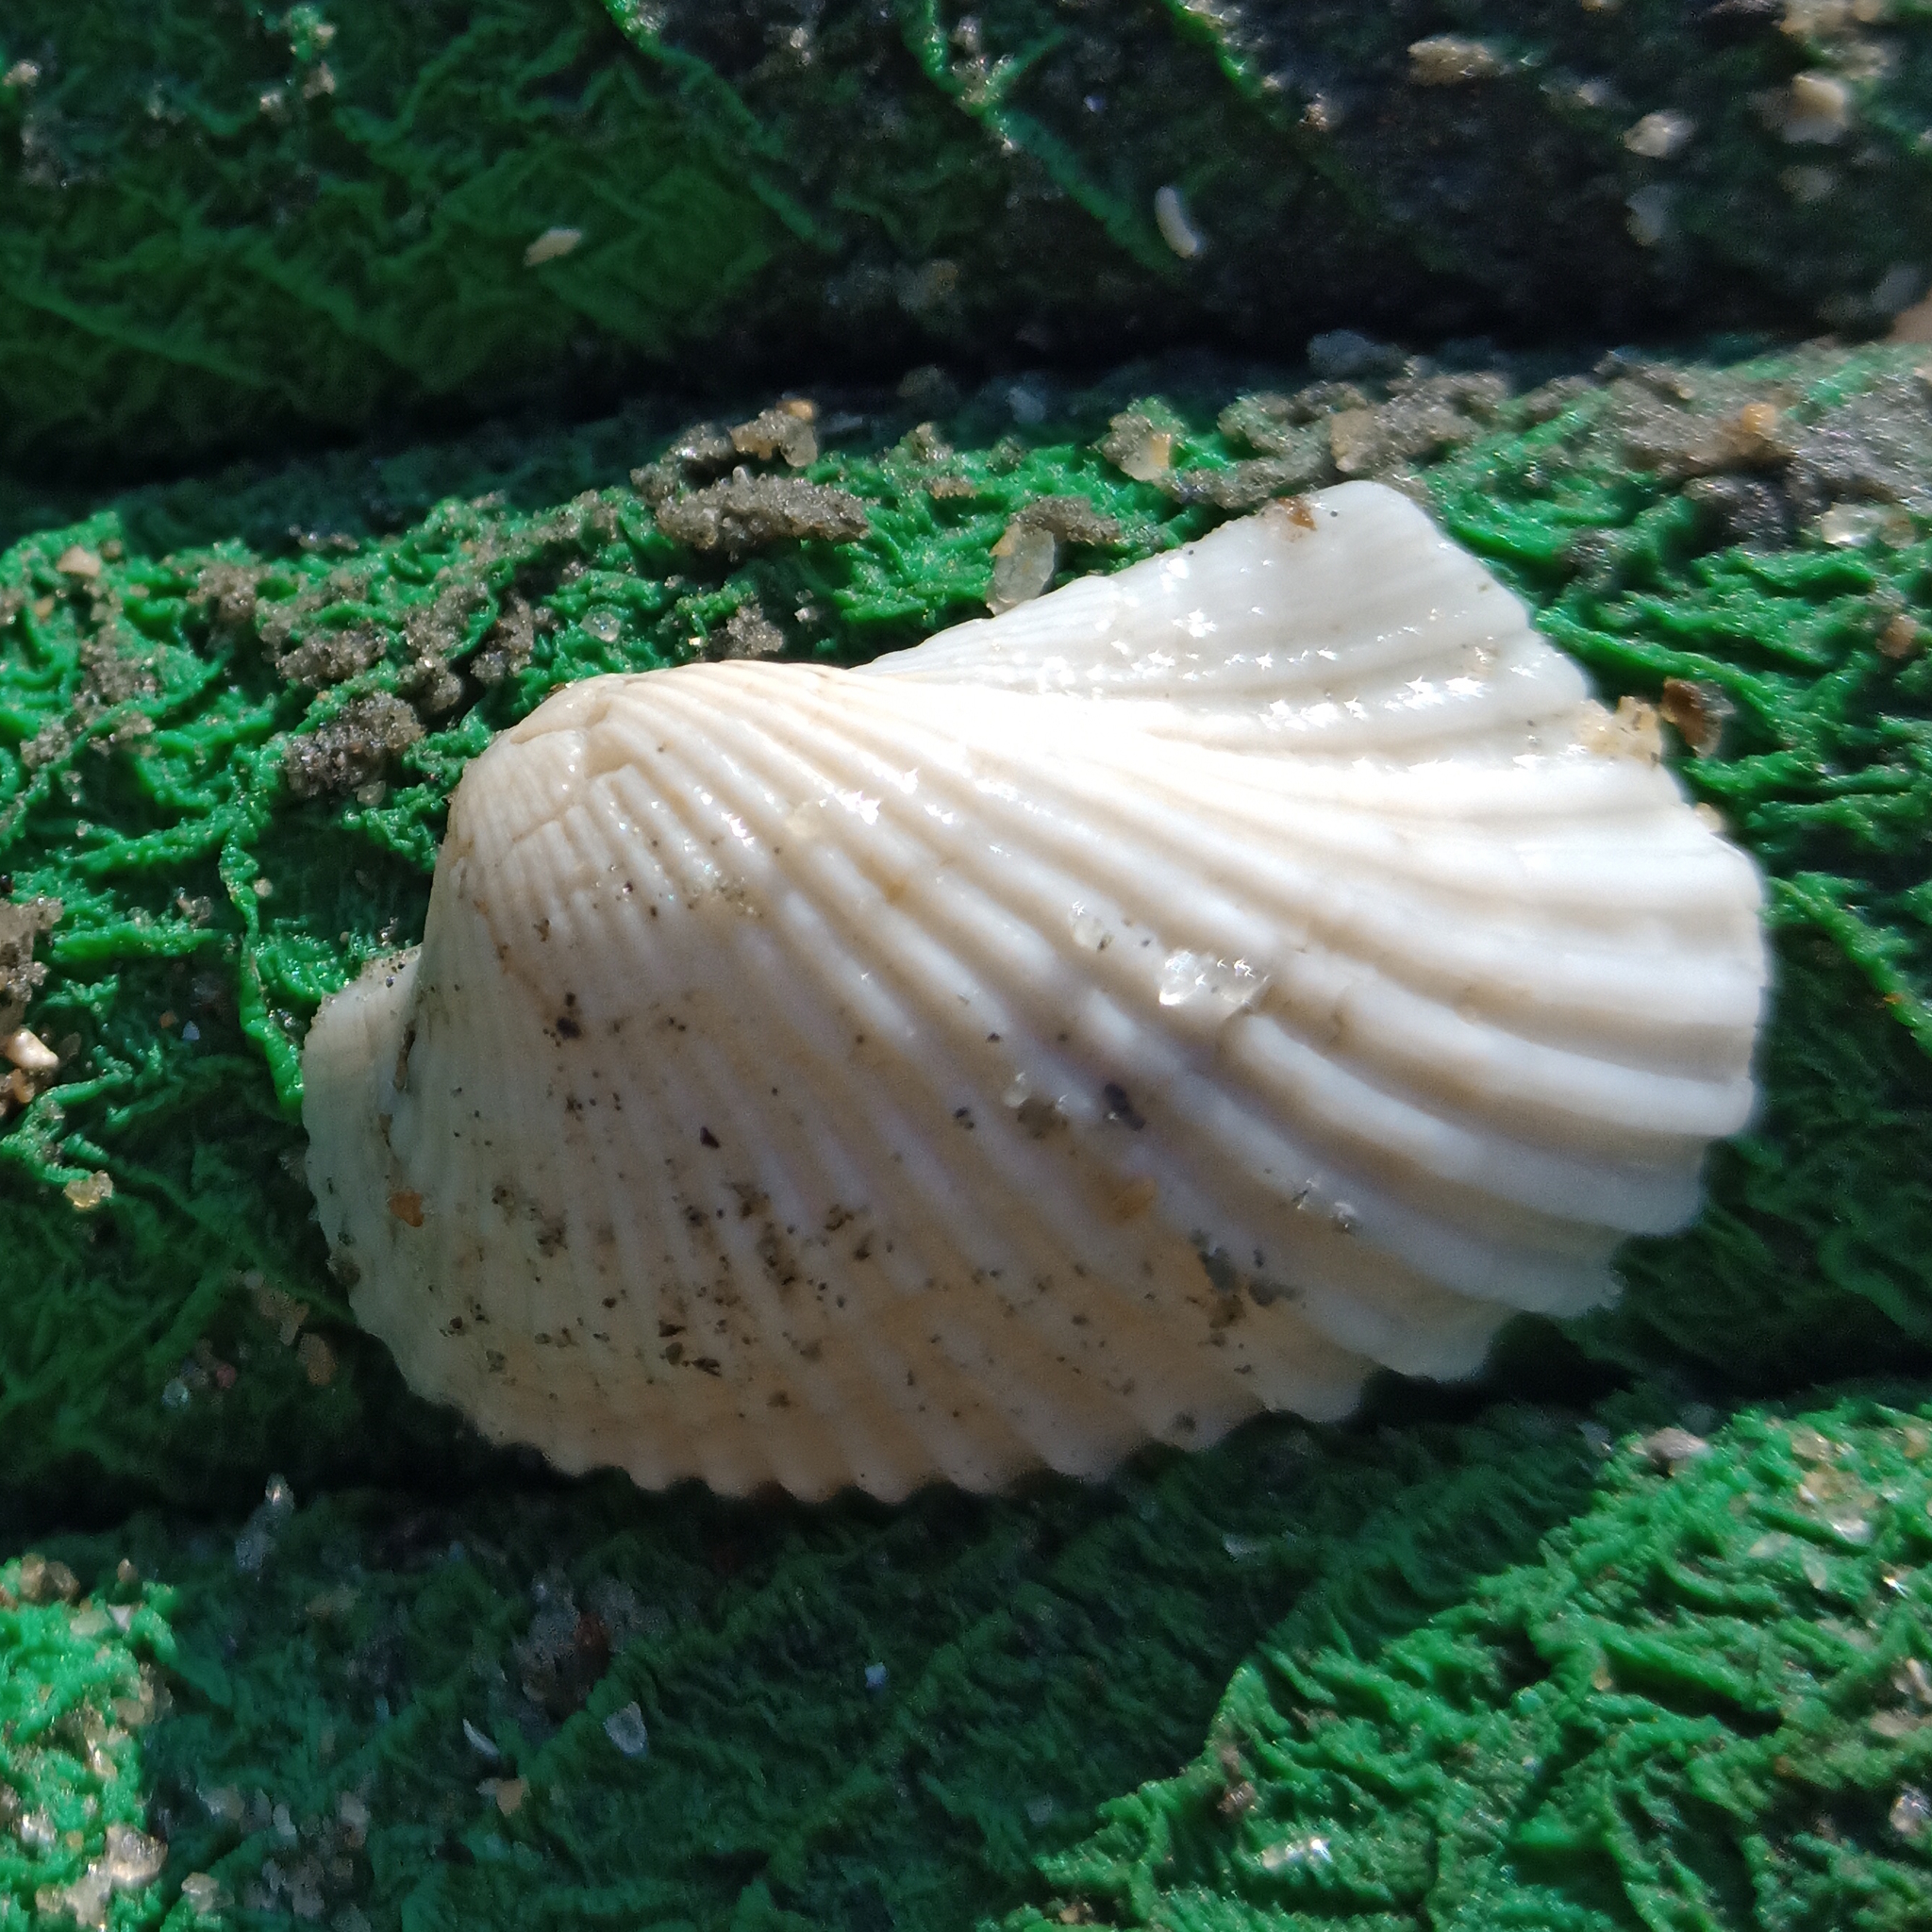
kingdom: Animalia
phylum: Mollusca
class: Bivalvia
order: Arcida
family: Arcidae
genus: Anadara
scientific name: Anadara notabilis
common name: Eared ark
